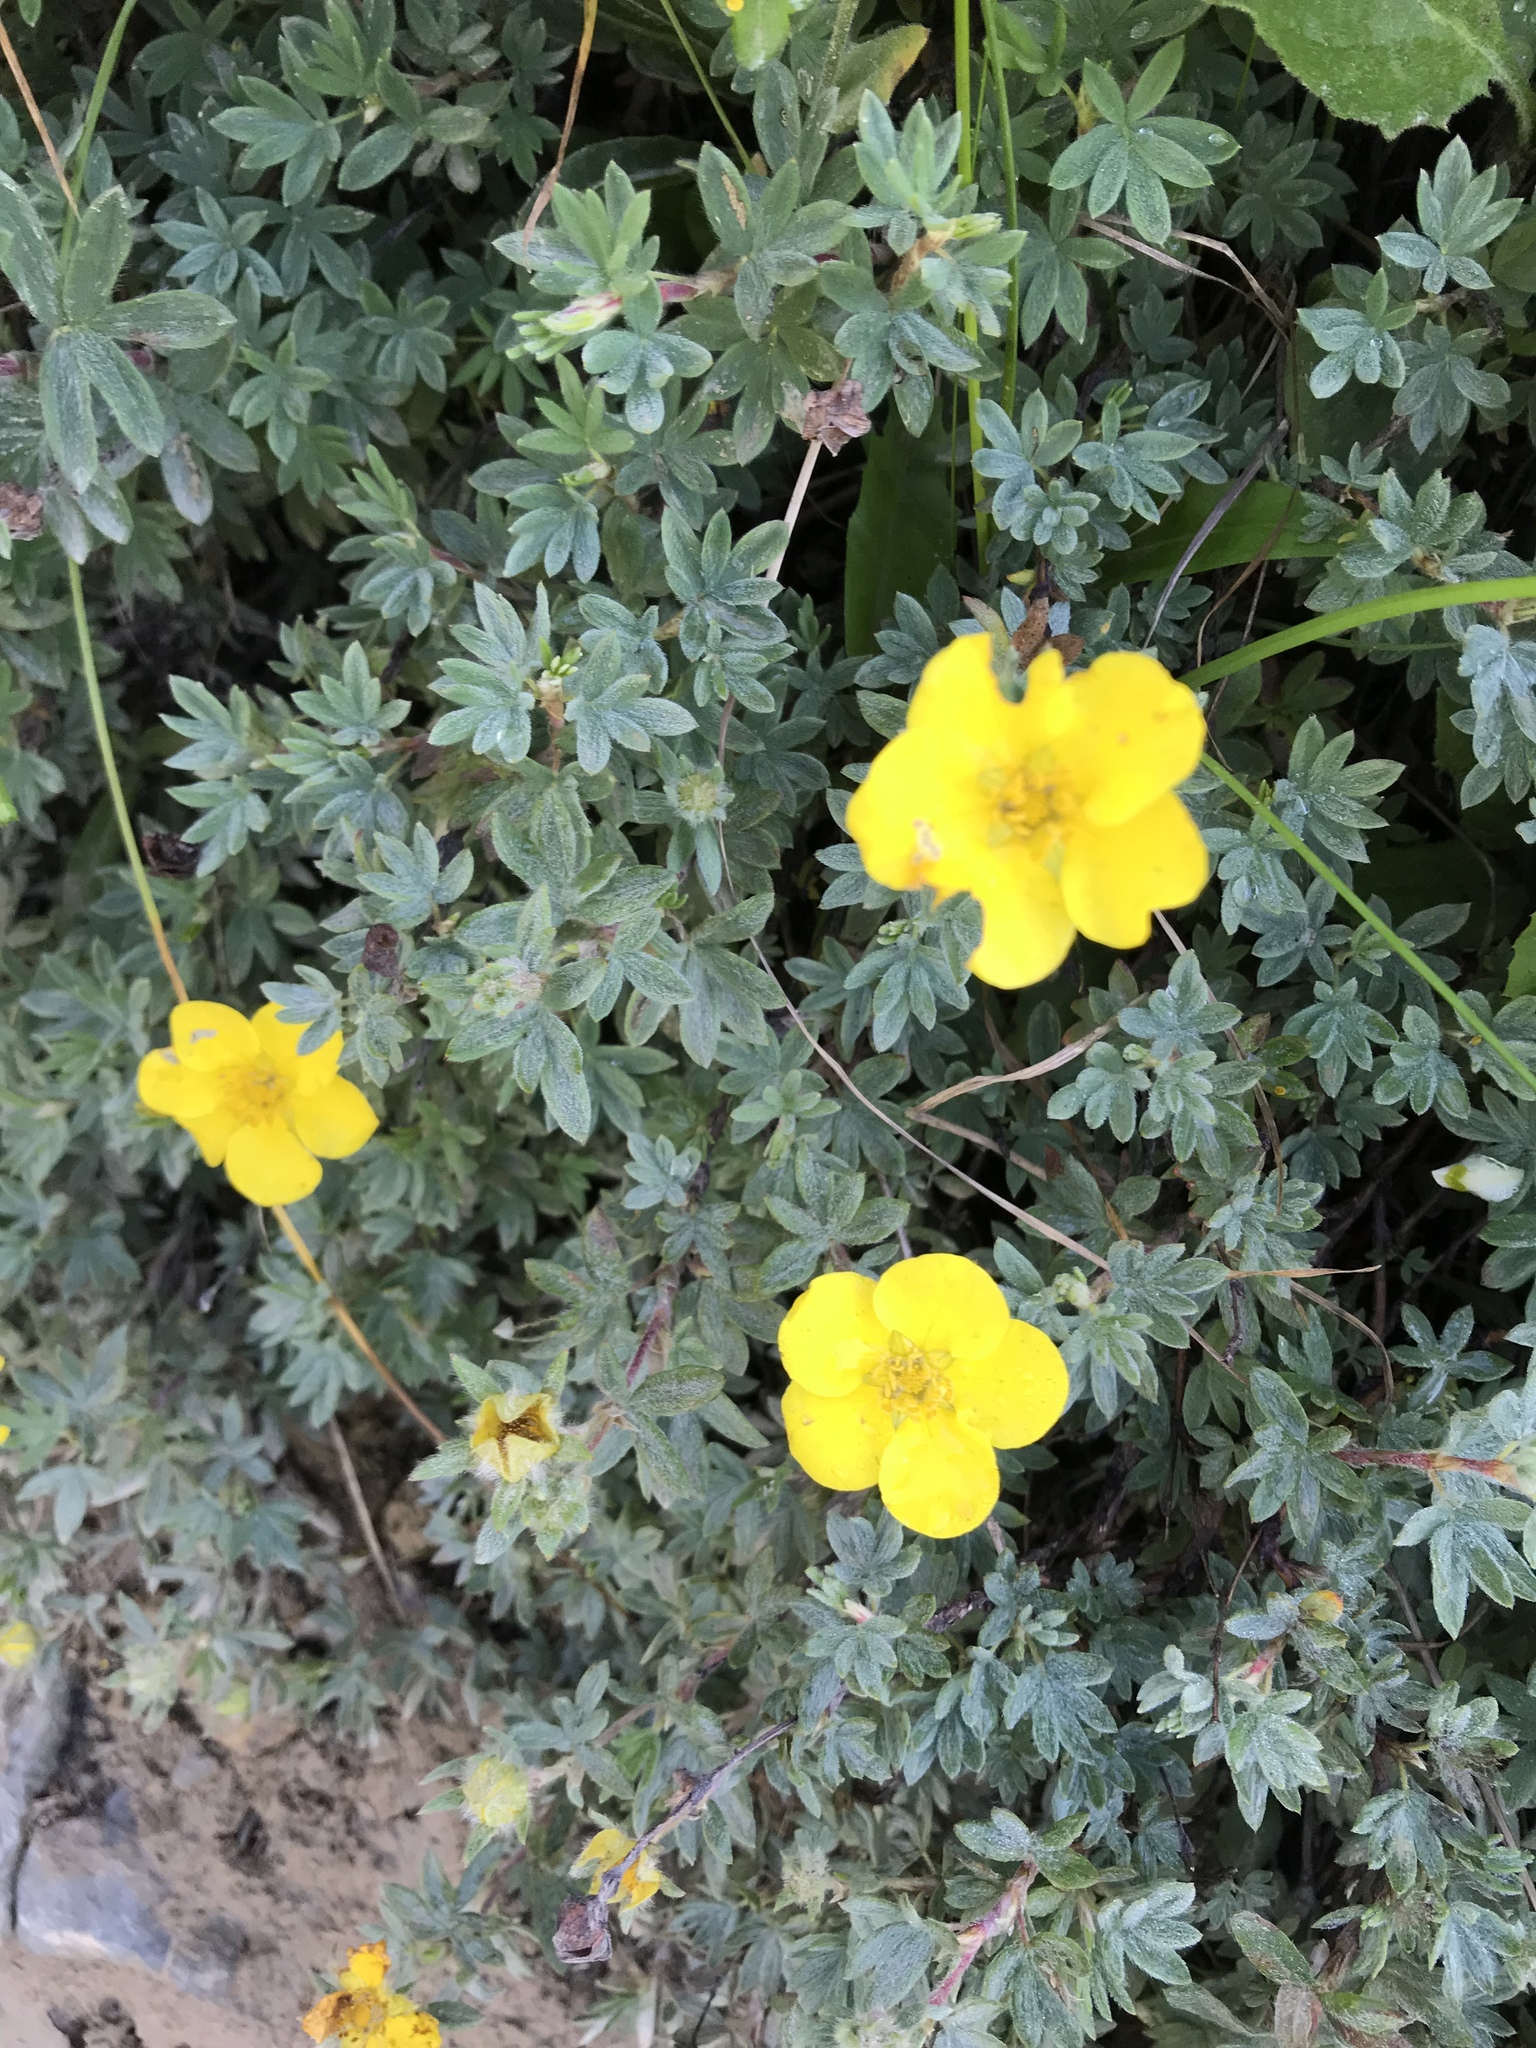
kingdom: Plantae
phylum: Tracheophyta
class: Magnoliopsida
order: Rosales
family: Rosaceae
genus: Dasiphora
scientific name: Dasiphora fruticosa
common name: Shrubby cinquefoil
